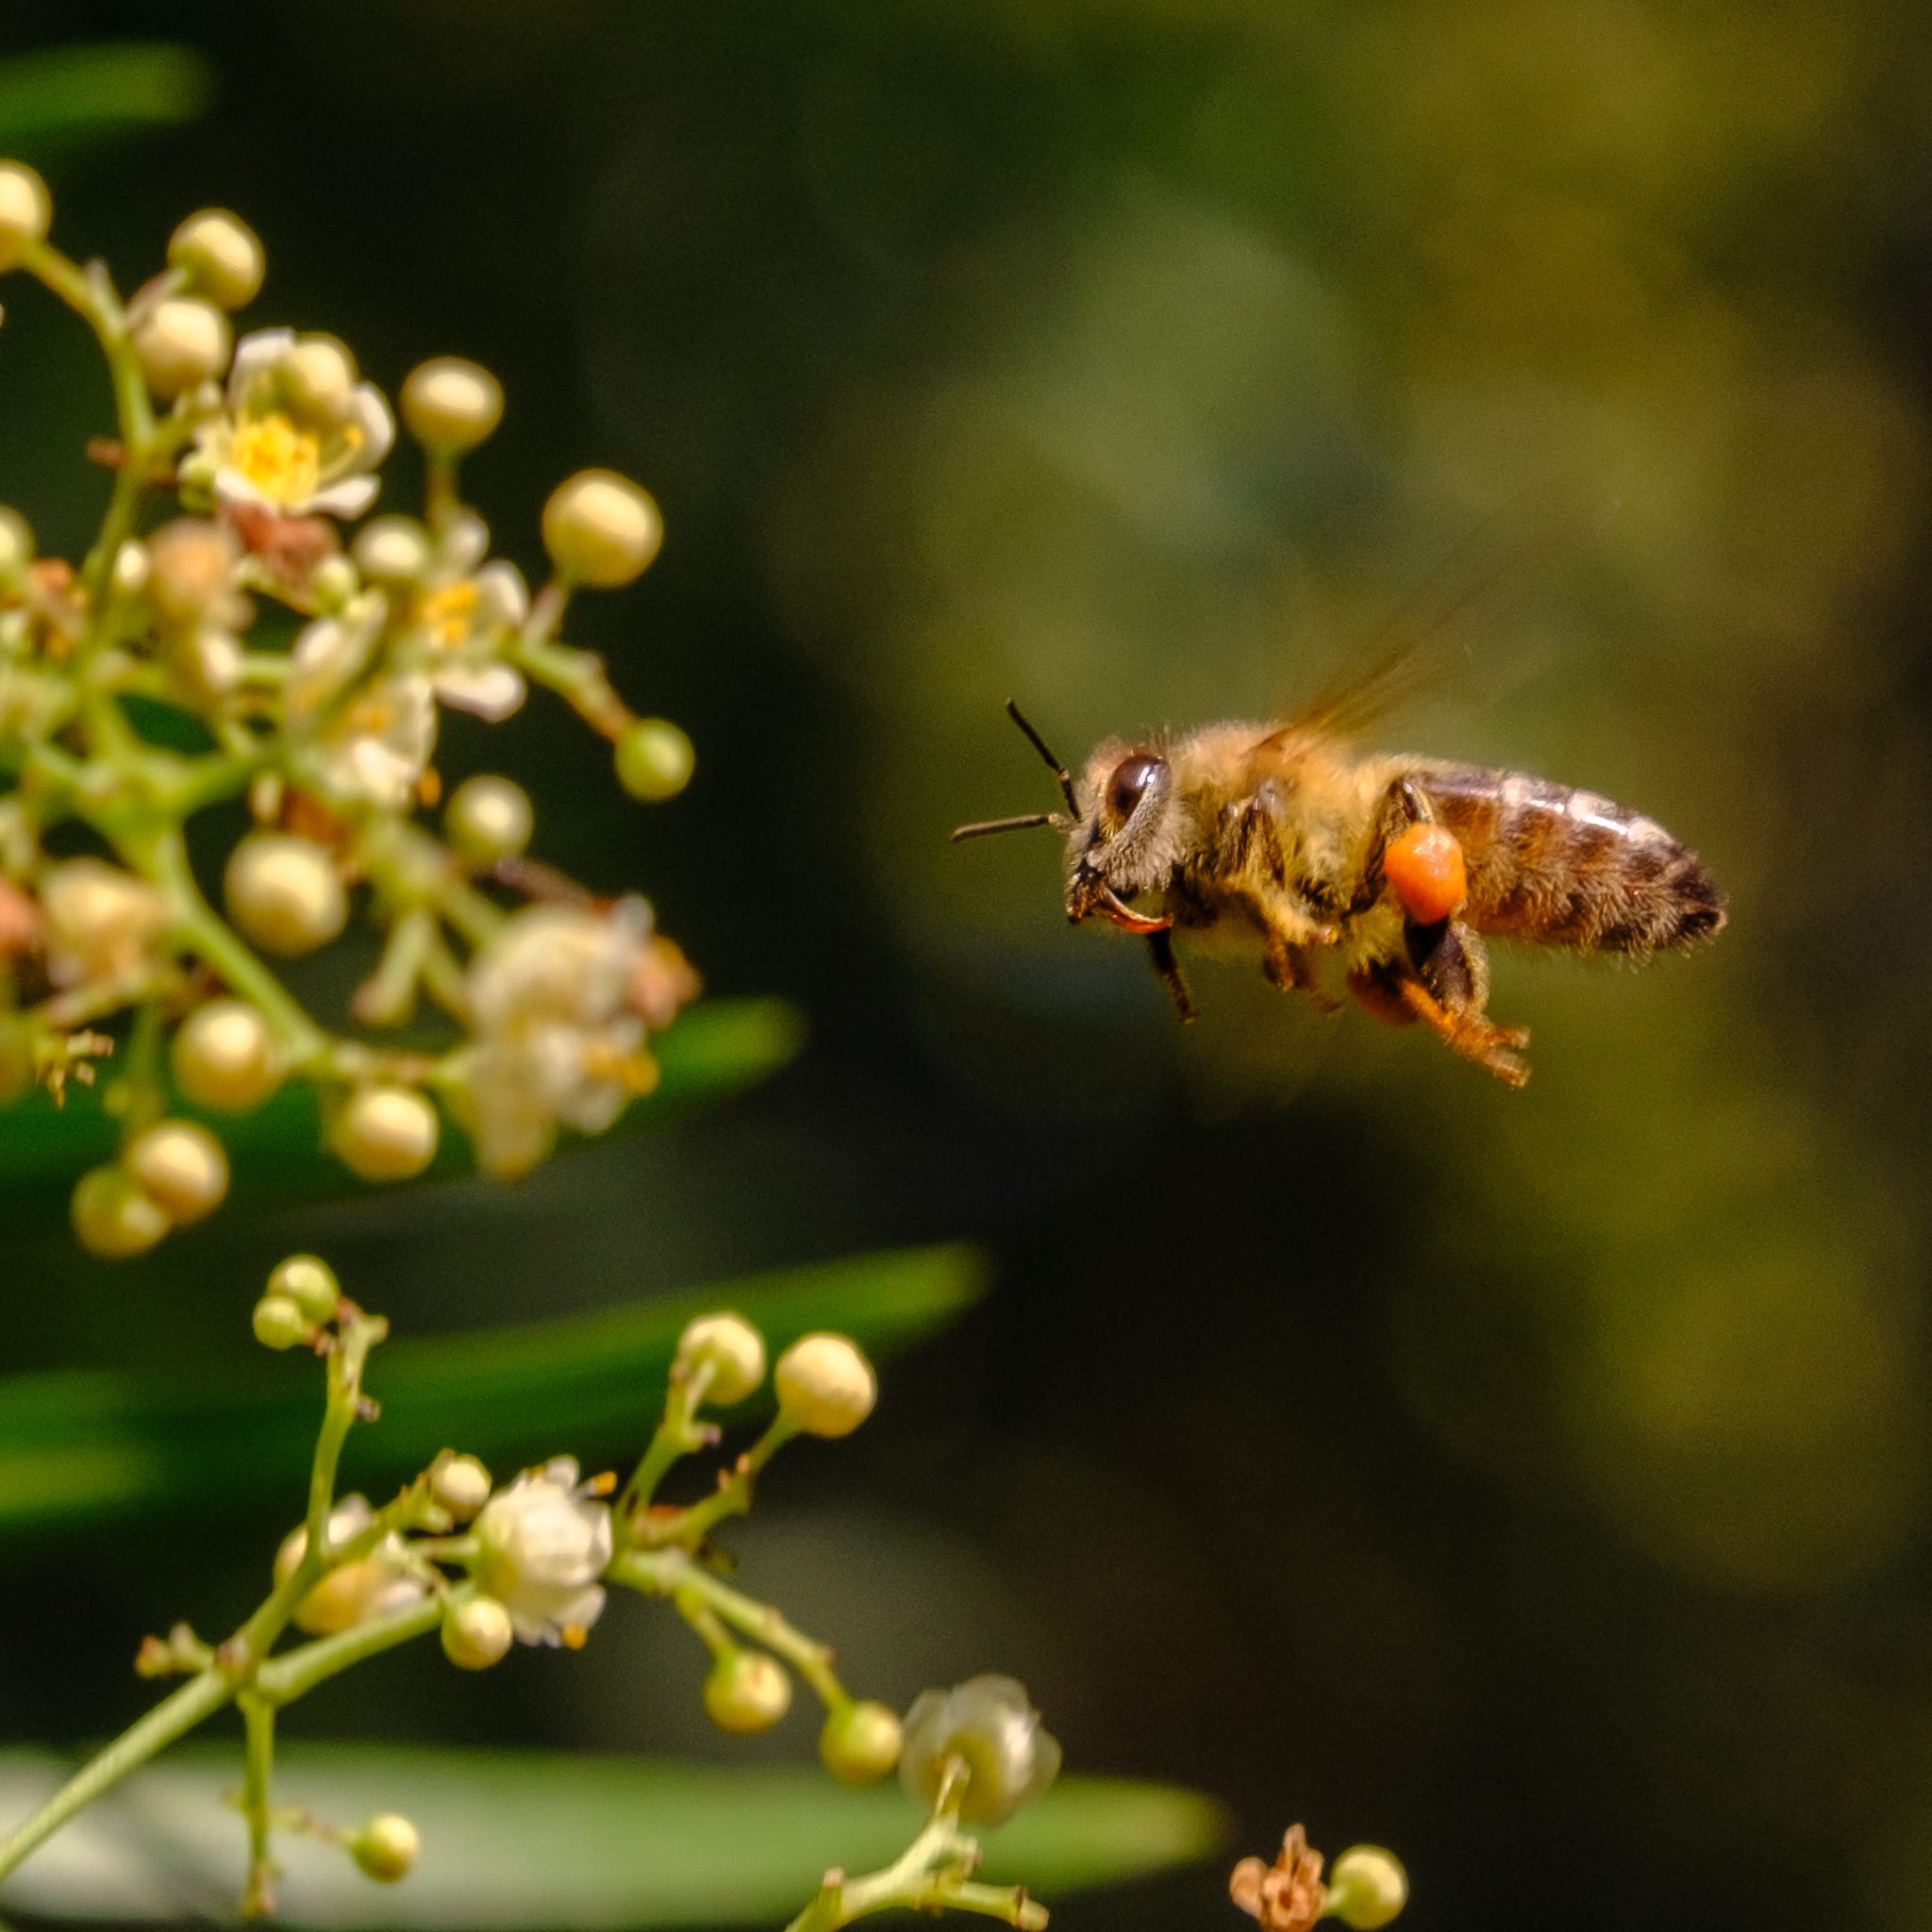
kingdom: Animalia
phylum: Arthropoda
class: Insecta
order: Hymenoptera
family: Apidae
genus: Apis
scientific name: Apis mellifera
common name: Honey bee
